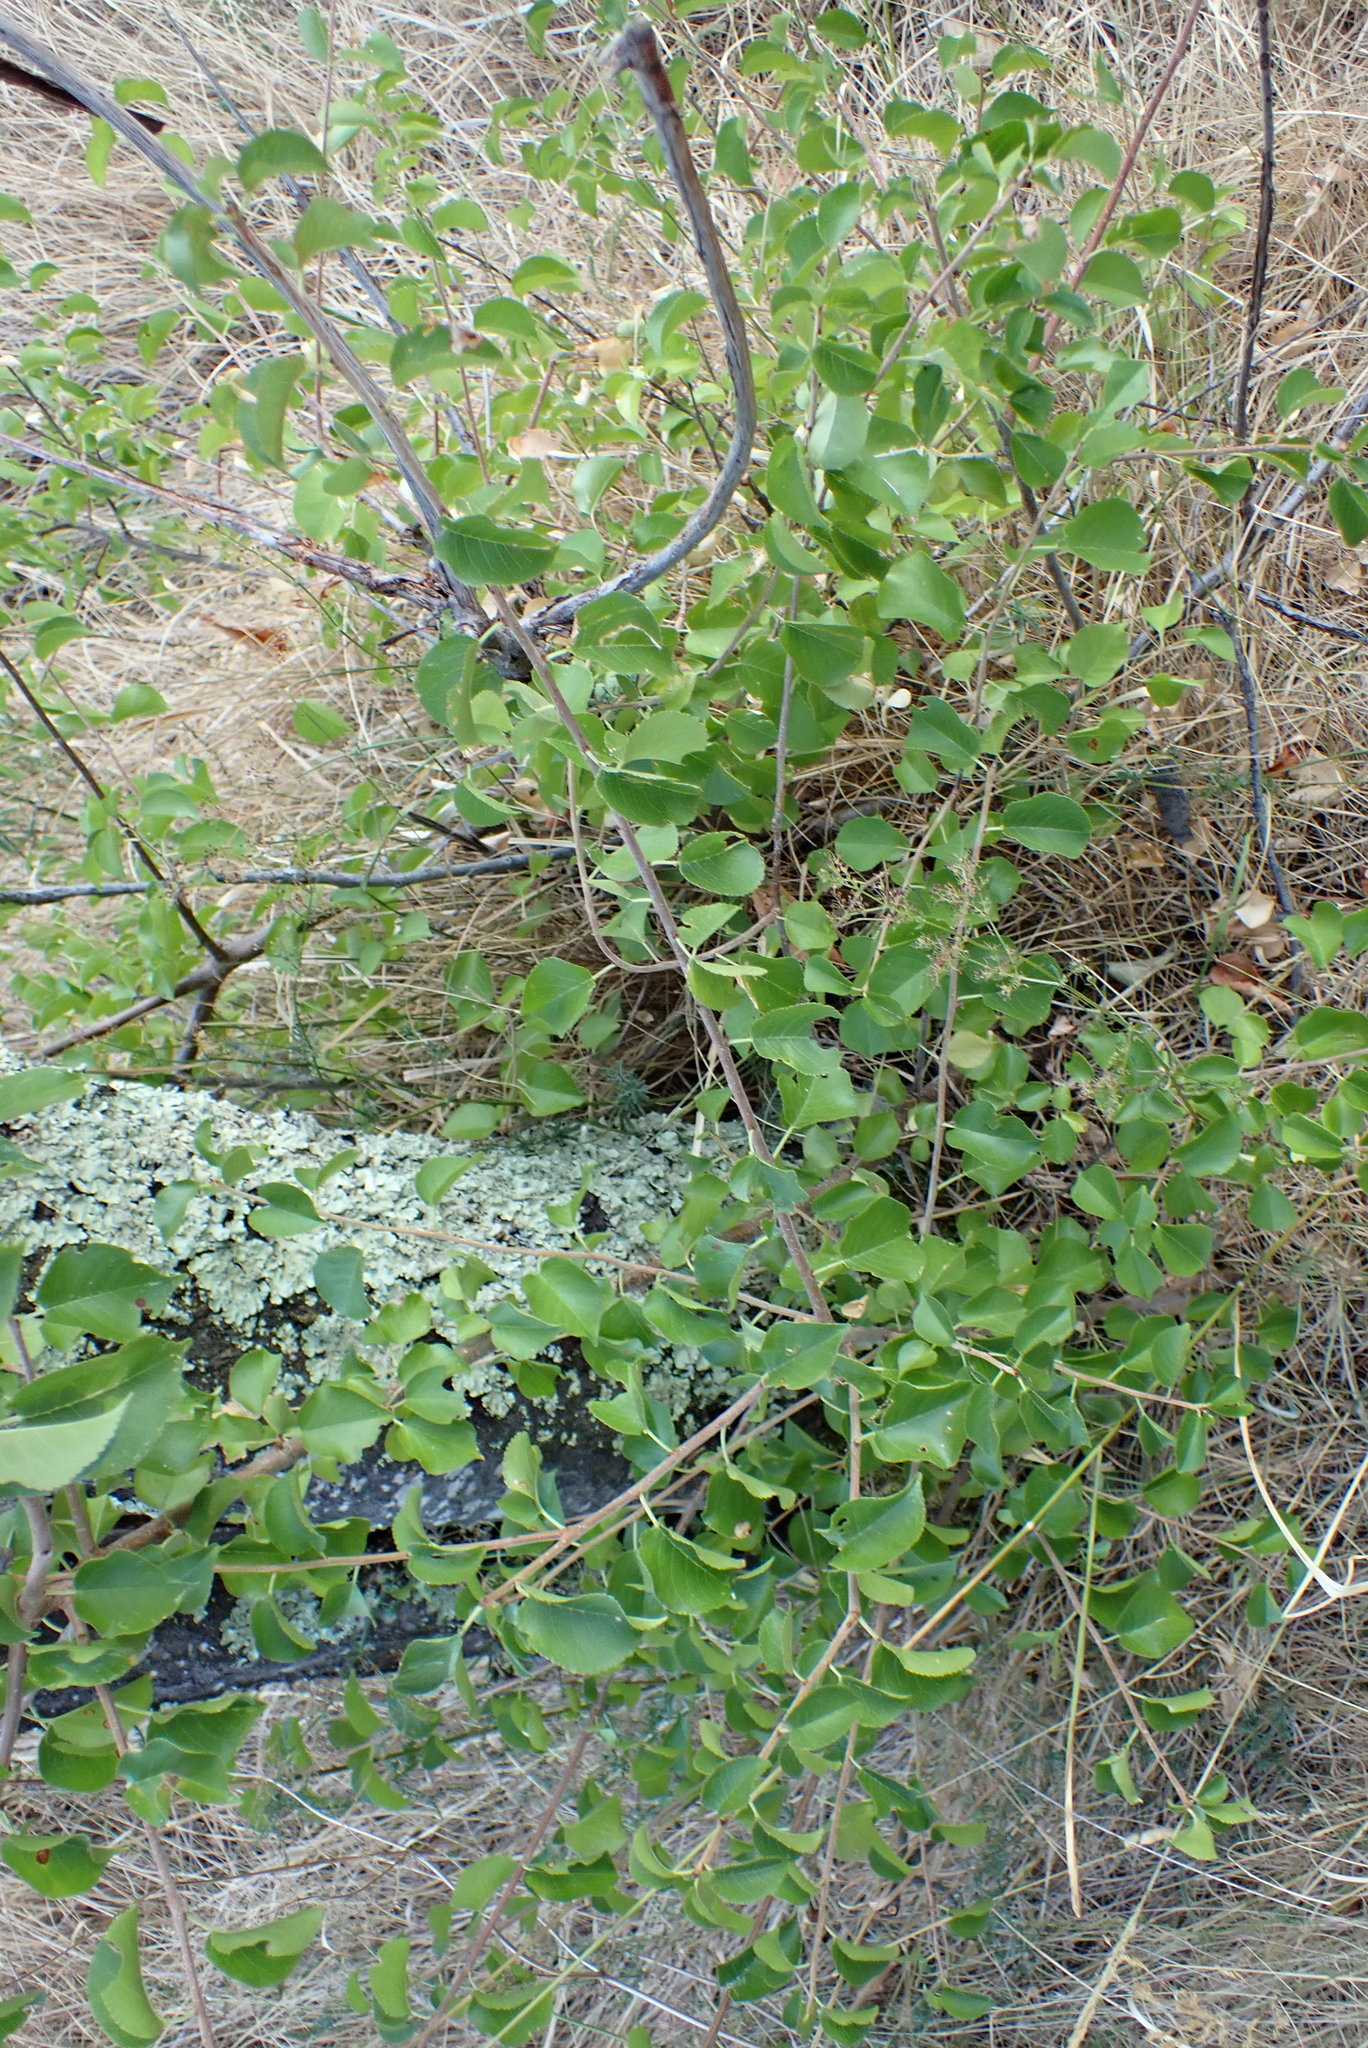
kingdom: Plantae
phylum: Tracheophyta
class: Magnoliopsida
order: Rosales
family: Rosaceae
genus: Prunus
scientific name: Prunus mahaleb
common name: Mahaleb cherry
